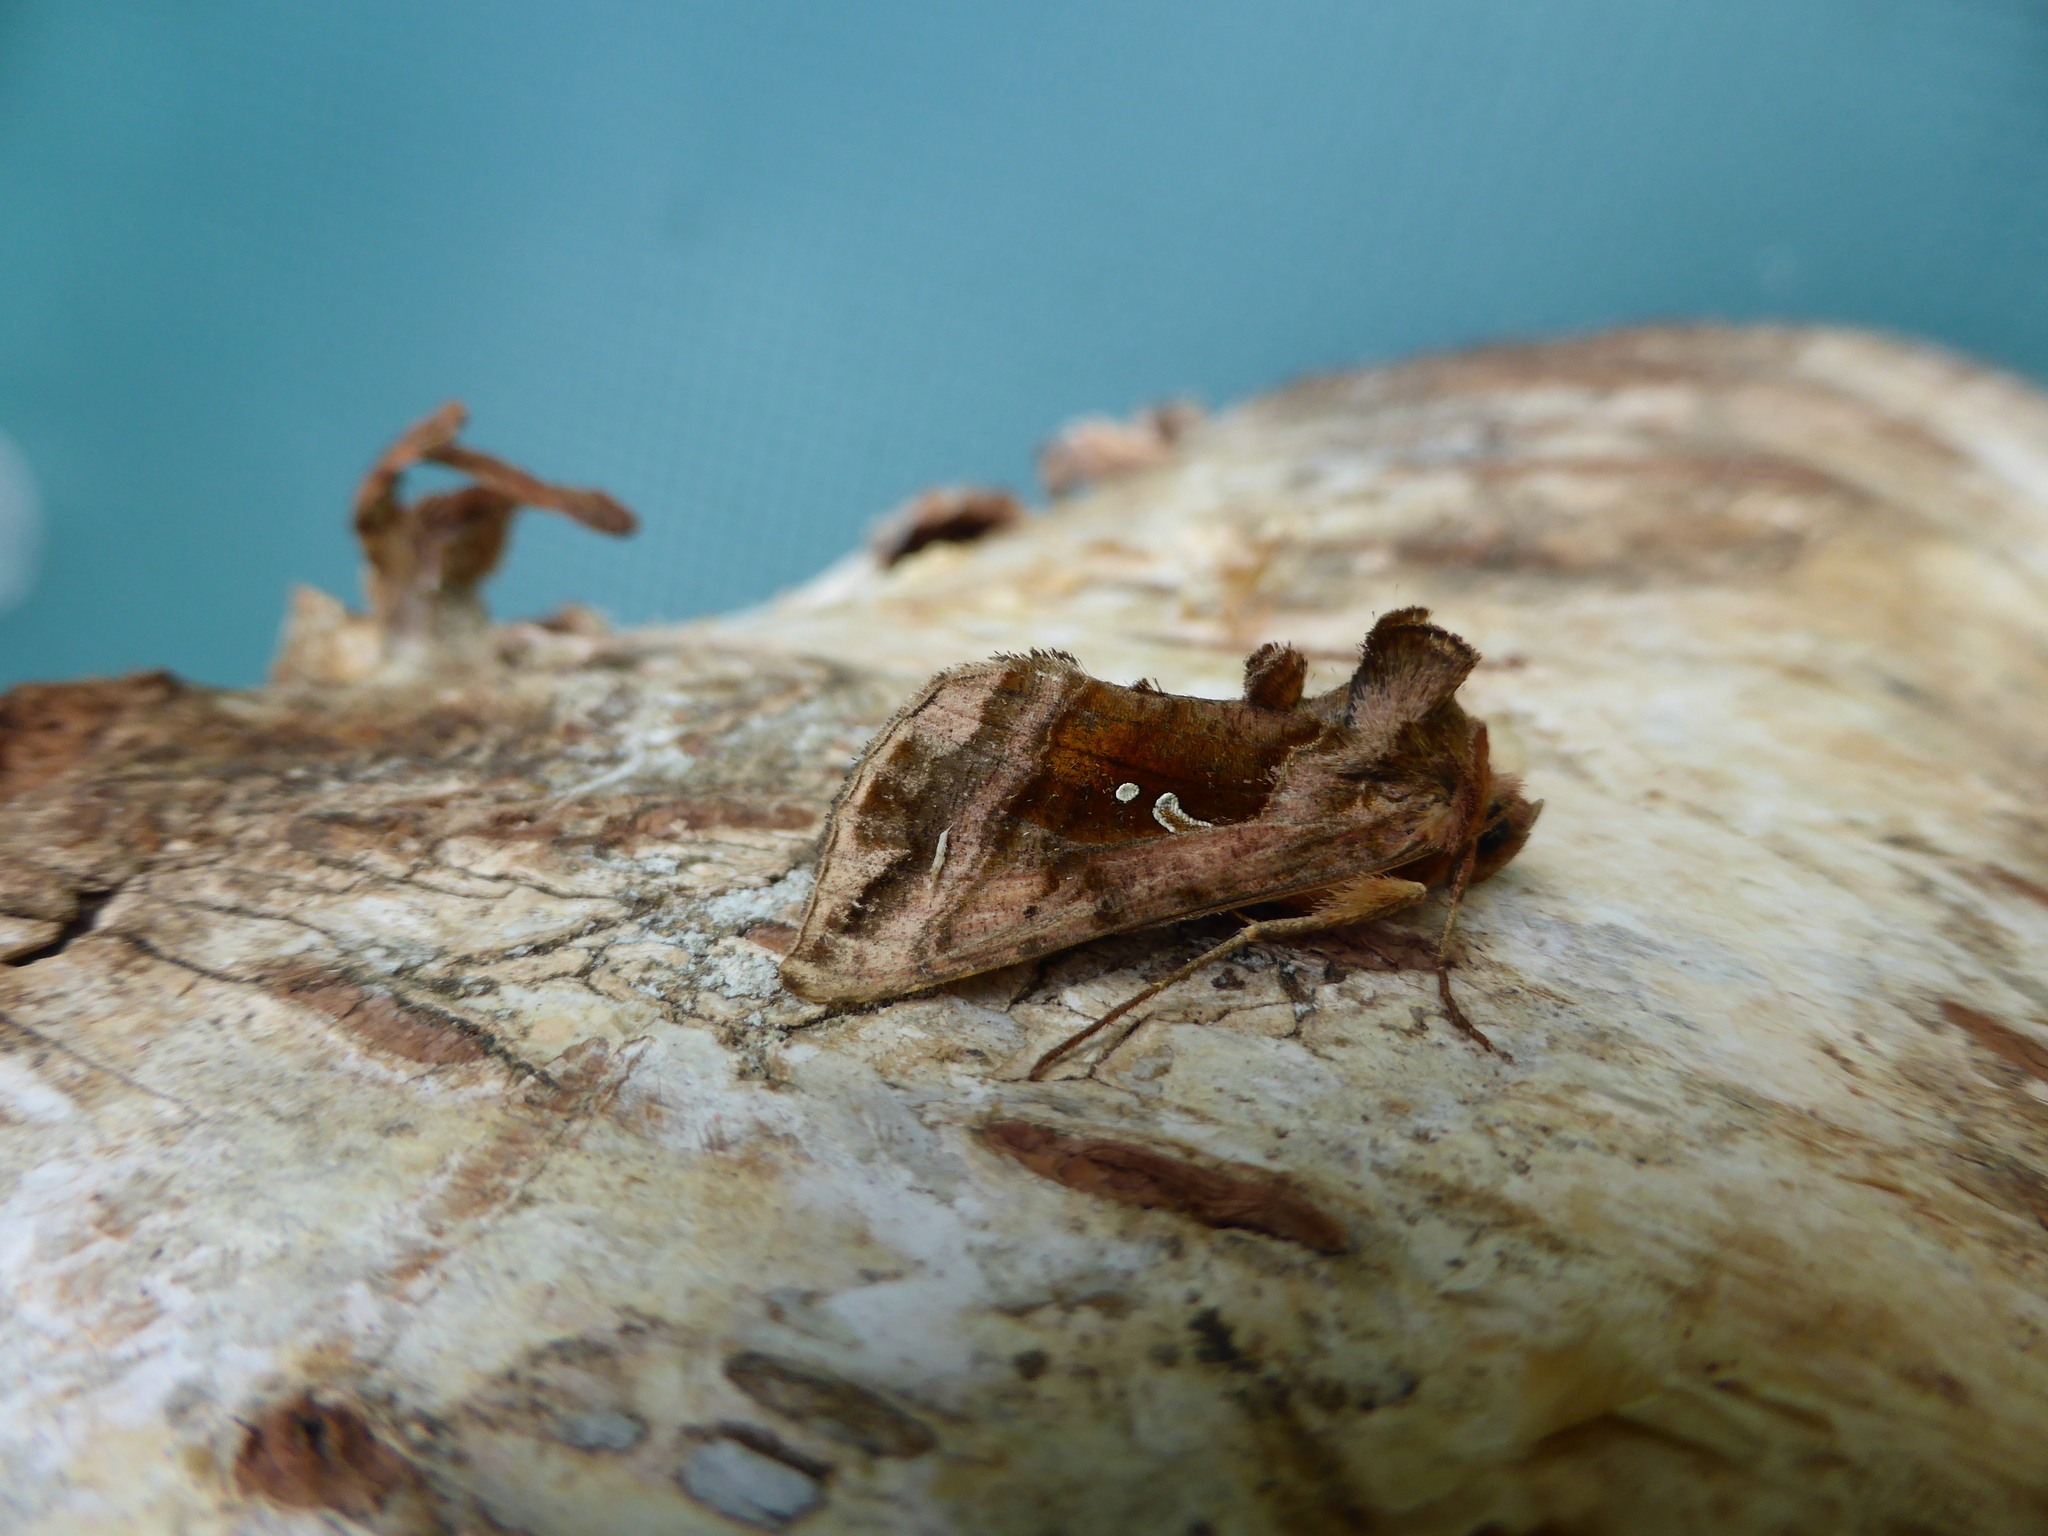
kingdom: Animalia
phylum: Arthropoda
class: Insecta
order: Lepidoptera
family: Noctuidae
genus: Autographa
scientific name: Autographa jota
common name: Plain golden y
